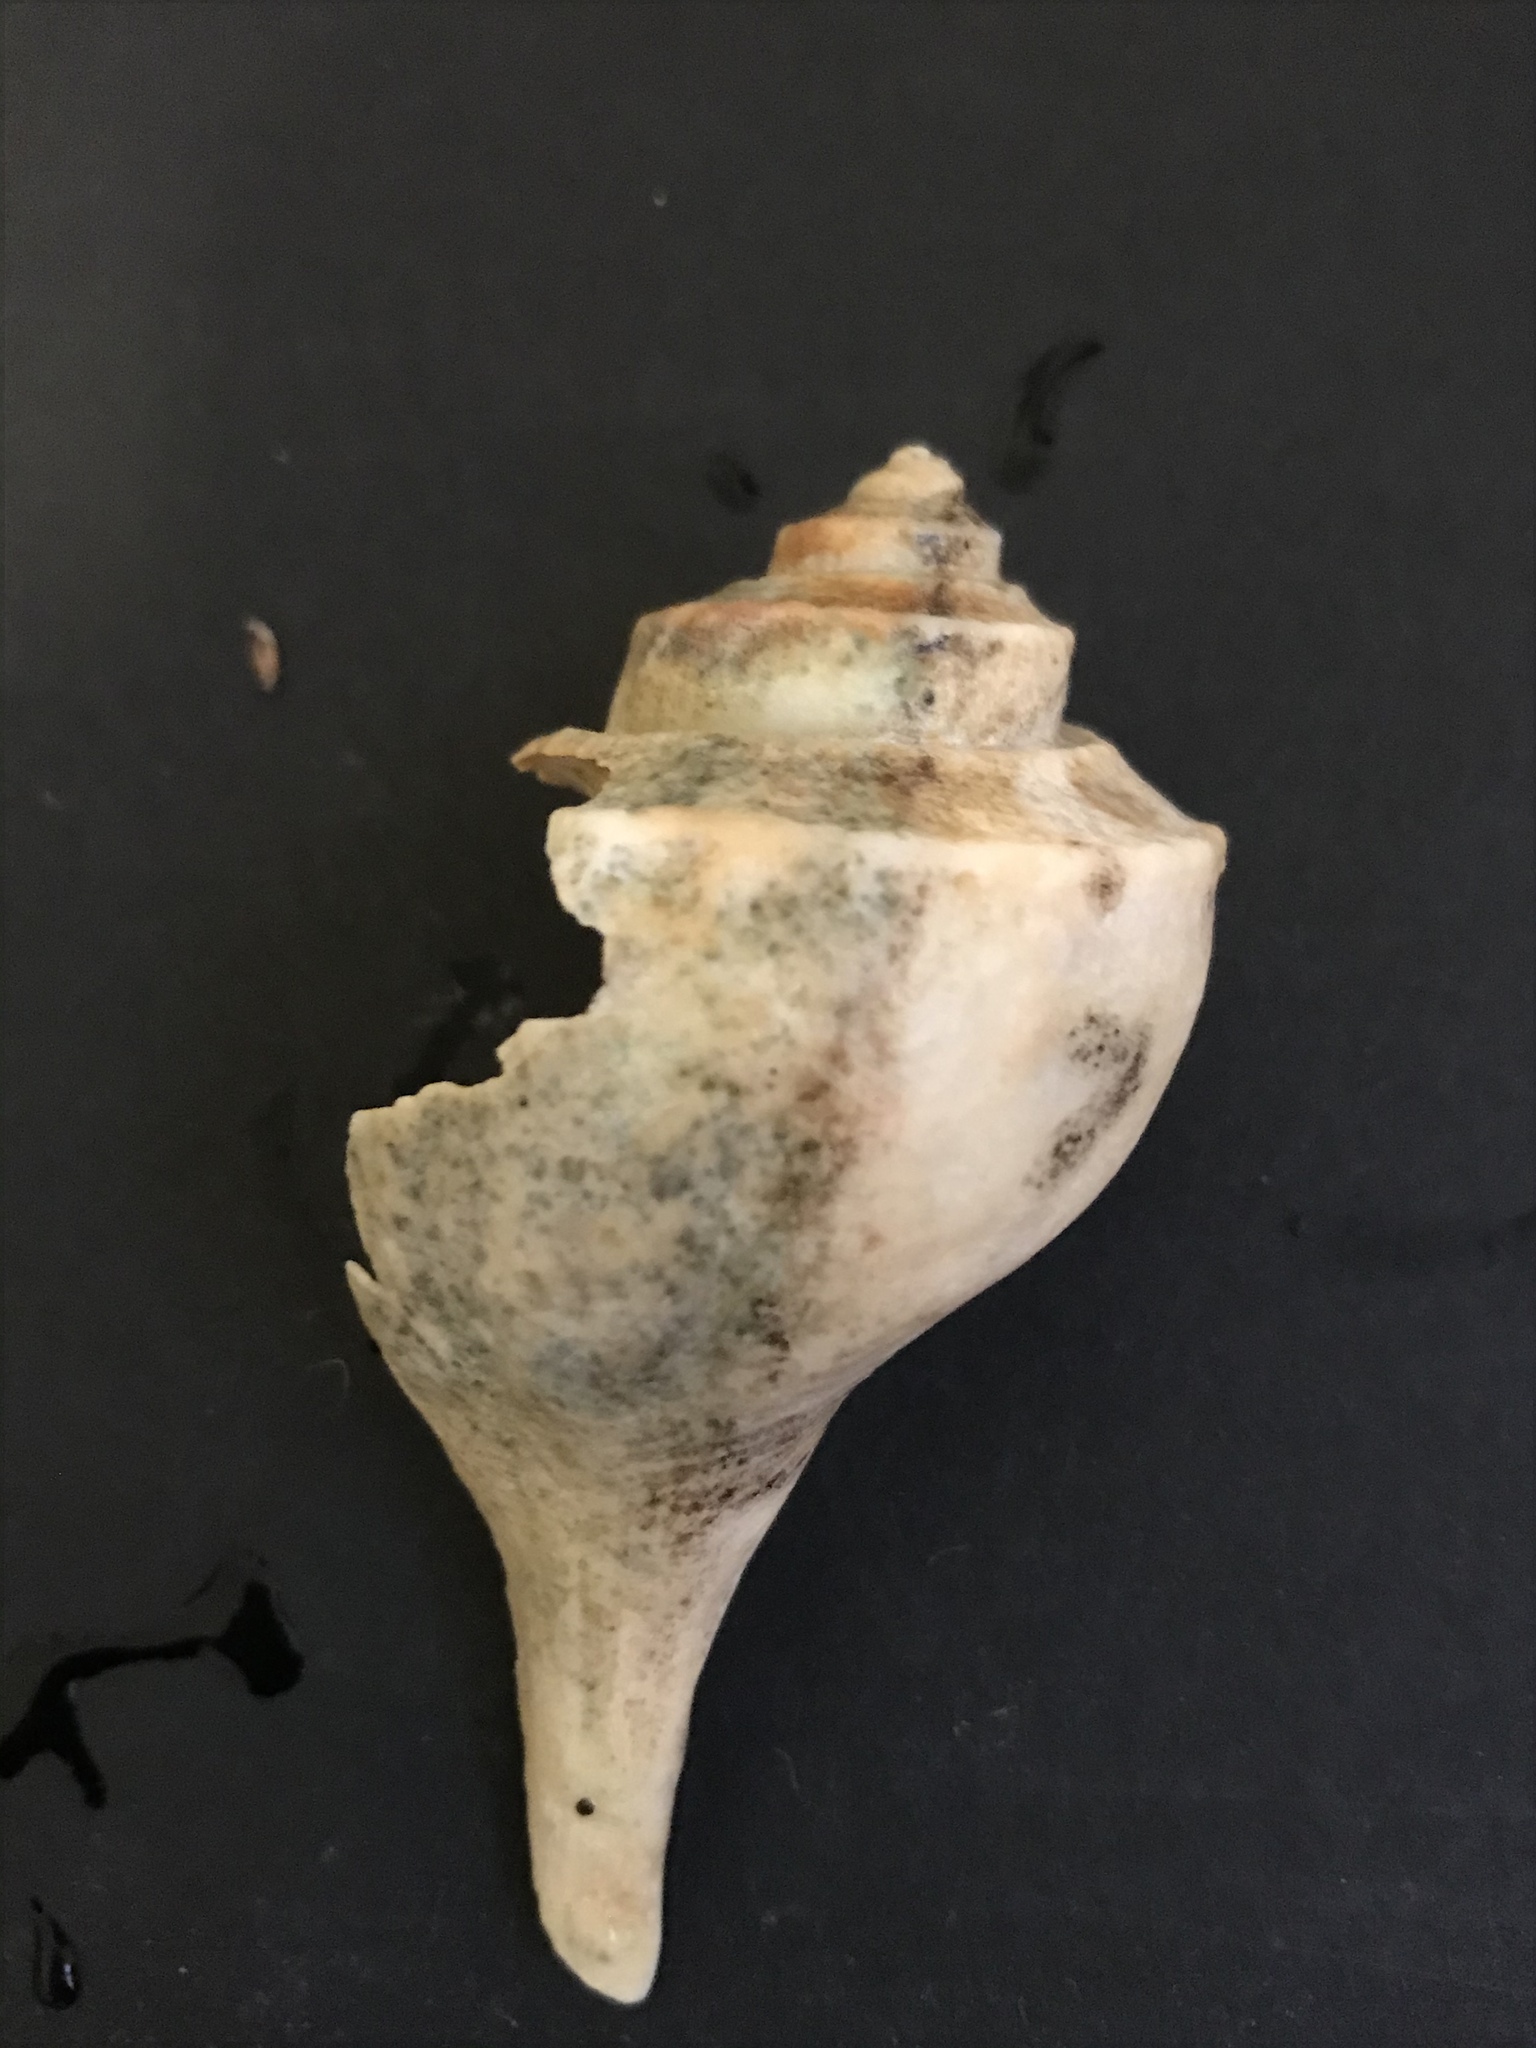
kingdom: Animalia
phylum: Mollusca
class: Gastropoda
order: Neogastropoda
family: Busyconidae
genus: Busycotypus
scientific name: Busycotypus canaliculatus
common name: Channeled whelk
